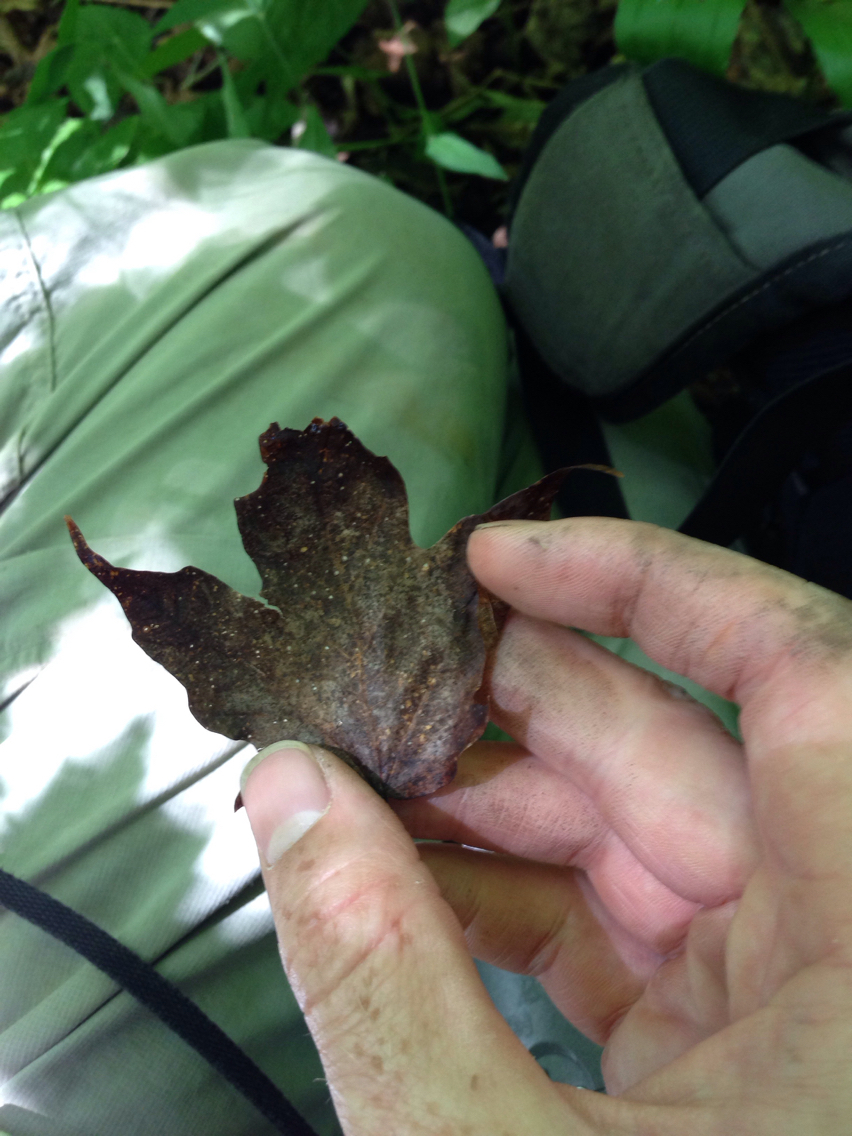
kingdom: Plantae
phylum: Tracheophyta
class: Magnoliopsida
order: Sapindales
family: Sapindaceae
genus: Acer
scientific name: Acer saccharum
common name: Sugar maple
